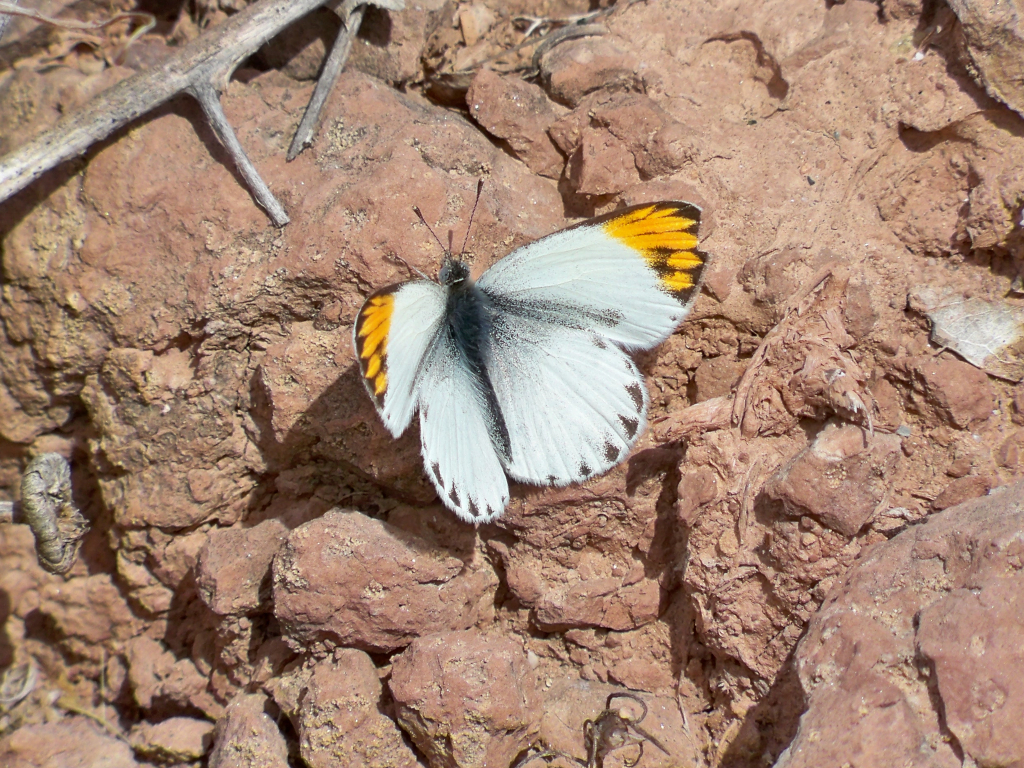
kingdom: Animalia
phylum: Arthropoda
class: Insecta
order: Lepidoptera
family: Pieridae
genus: Colotis
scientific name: Colotis evagore
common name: Desert orange-tip
